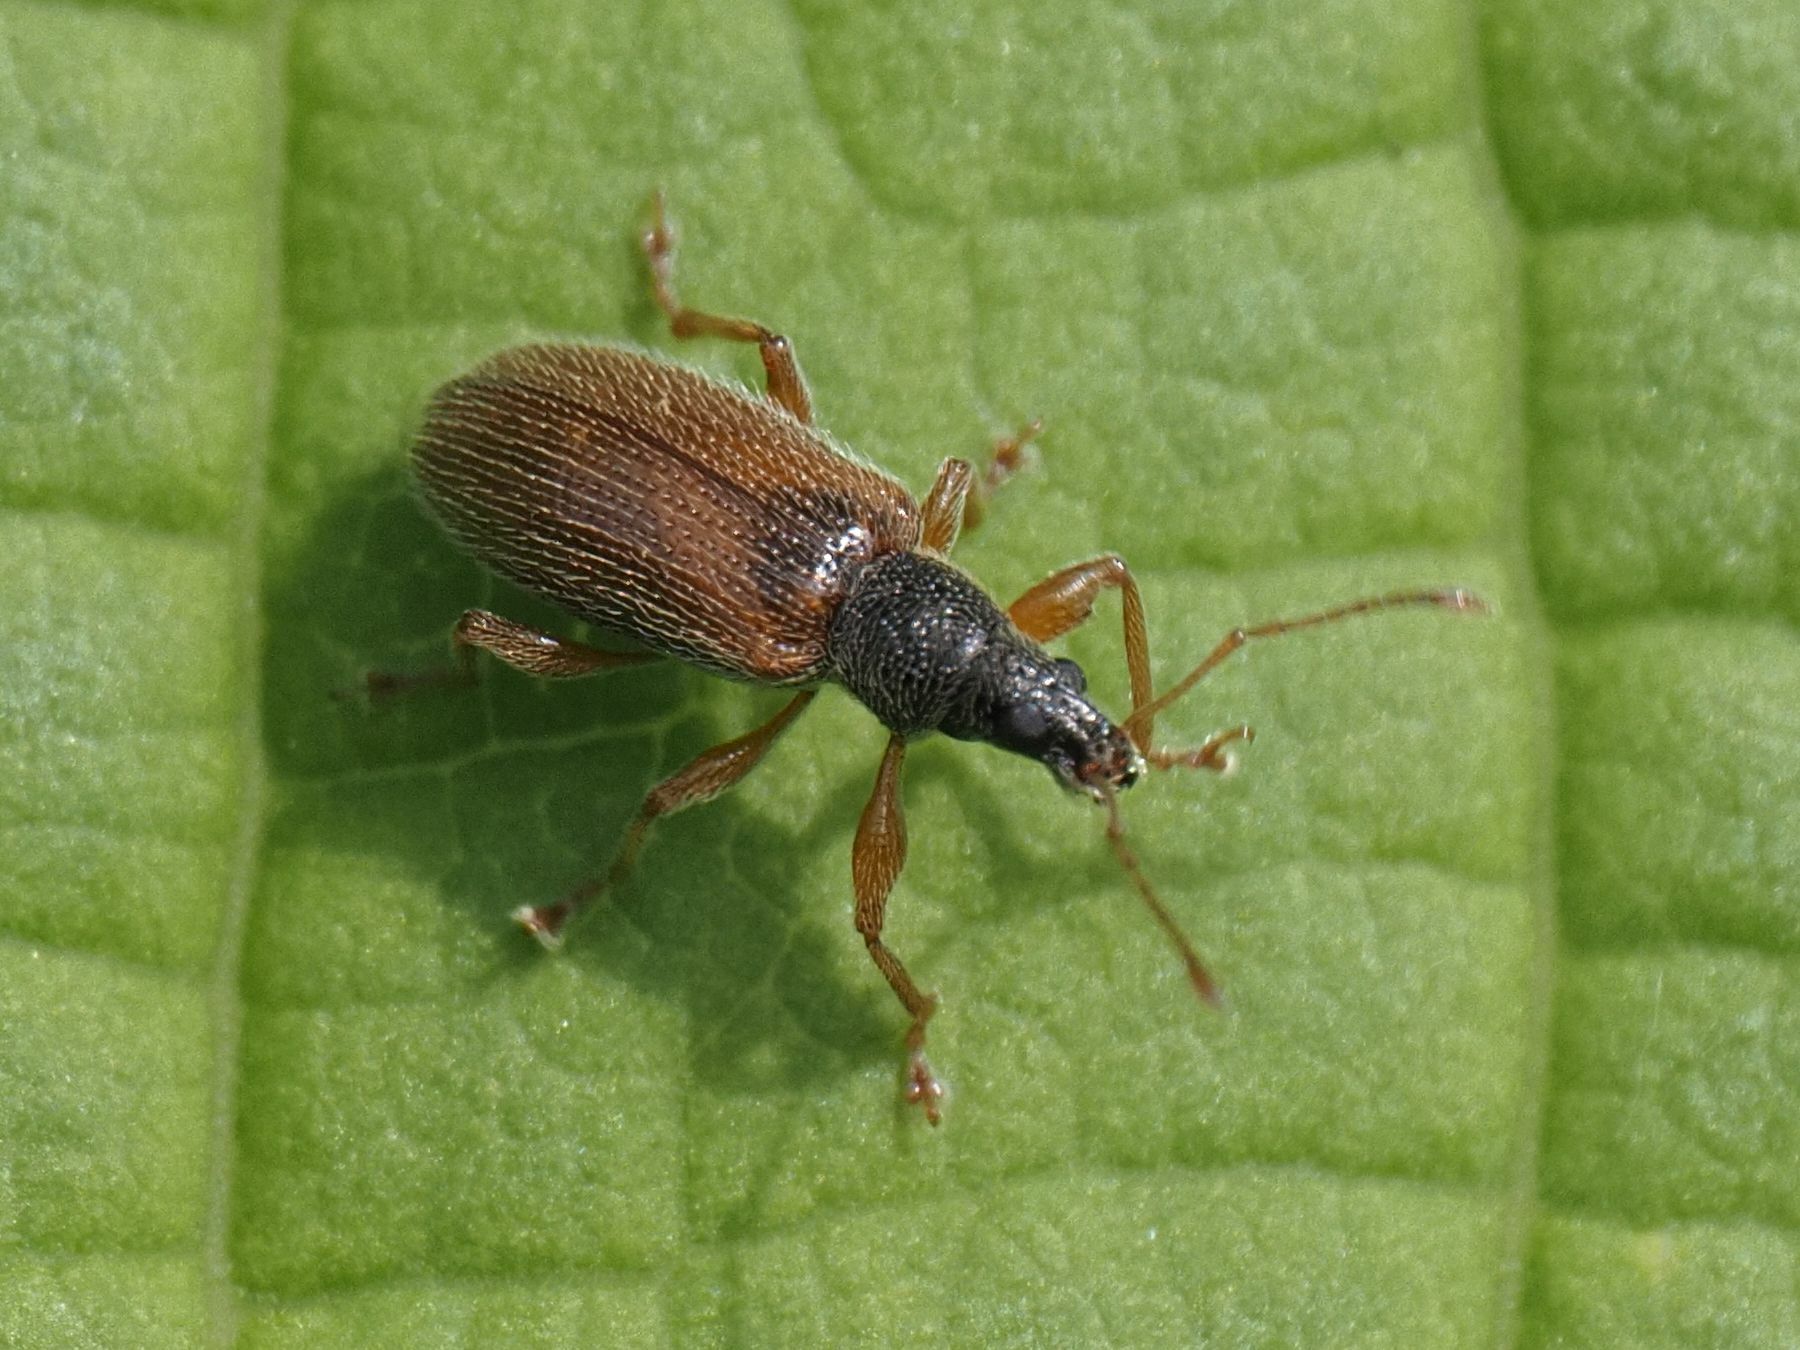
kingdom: Animalia
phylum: Arthropoda
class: Insecta
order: Coleoptera
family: Curculionidae
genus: Phyllobius
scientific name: Phyllobius oblongus
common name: Brown leaf weevil
